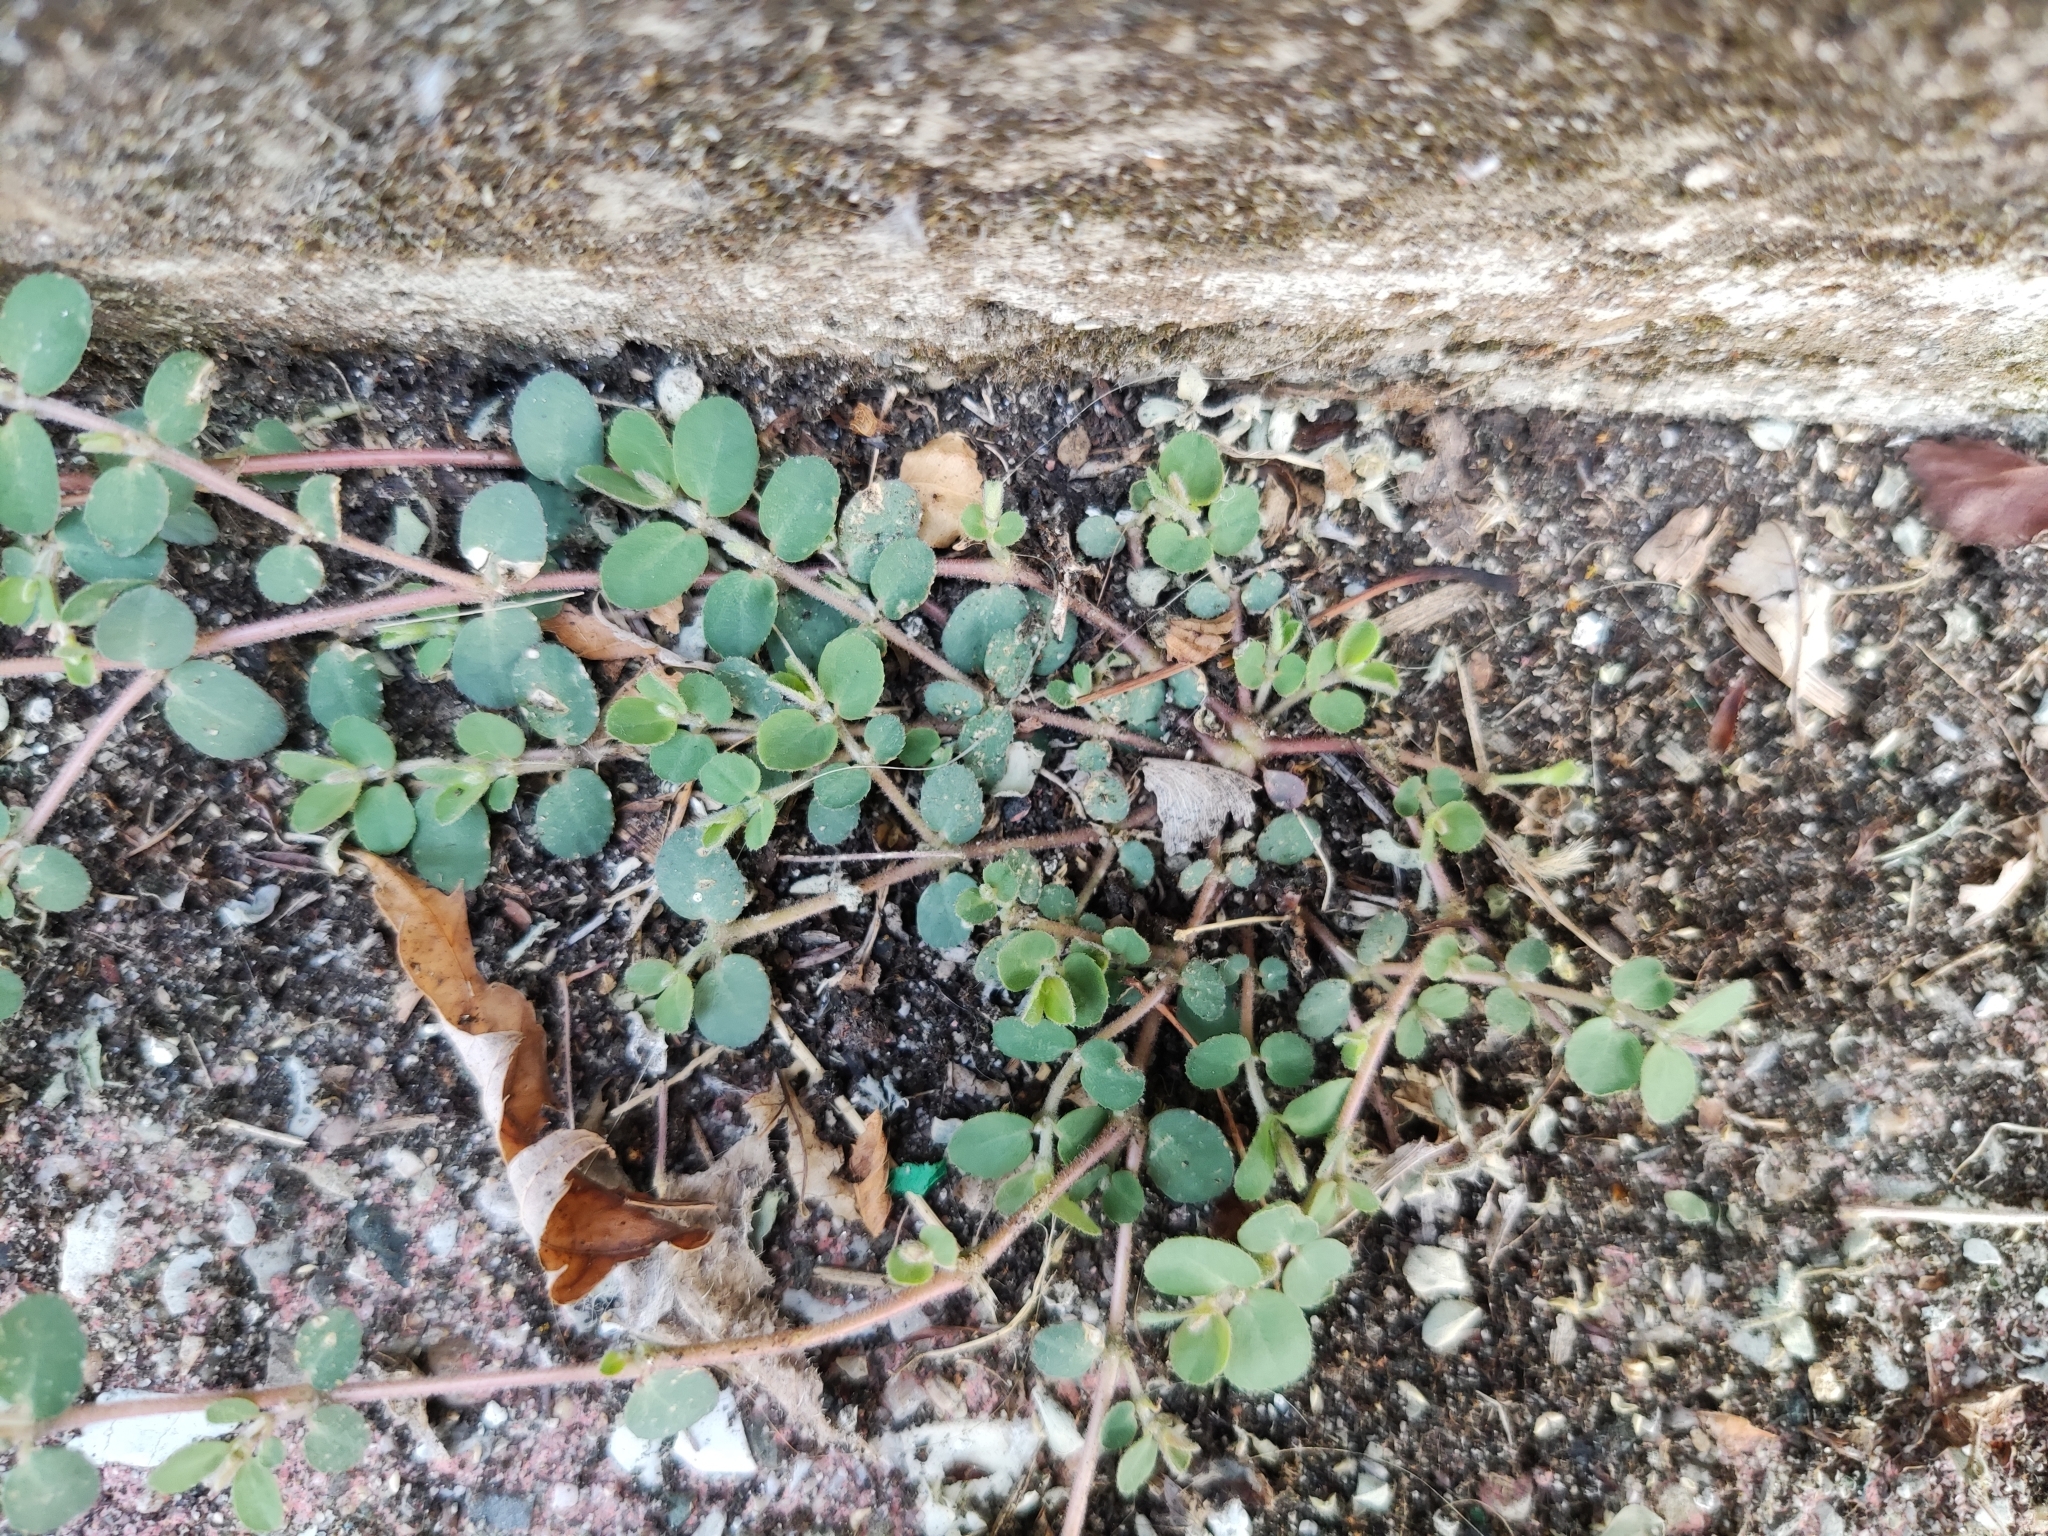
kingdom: Plantae
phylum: Tracheophyta
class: Magnoliopsida
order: Malpighiales
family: Euphorbiaceae
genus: Euphorbia
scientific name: Euphorbia prostrata
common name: Prostrate sandmat
